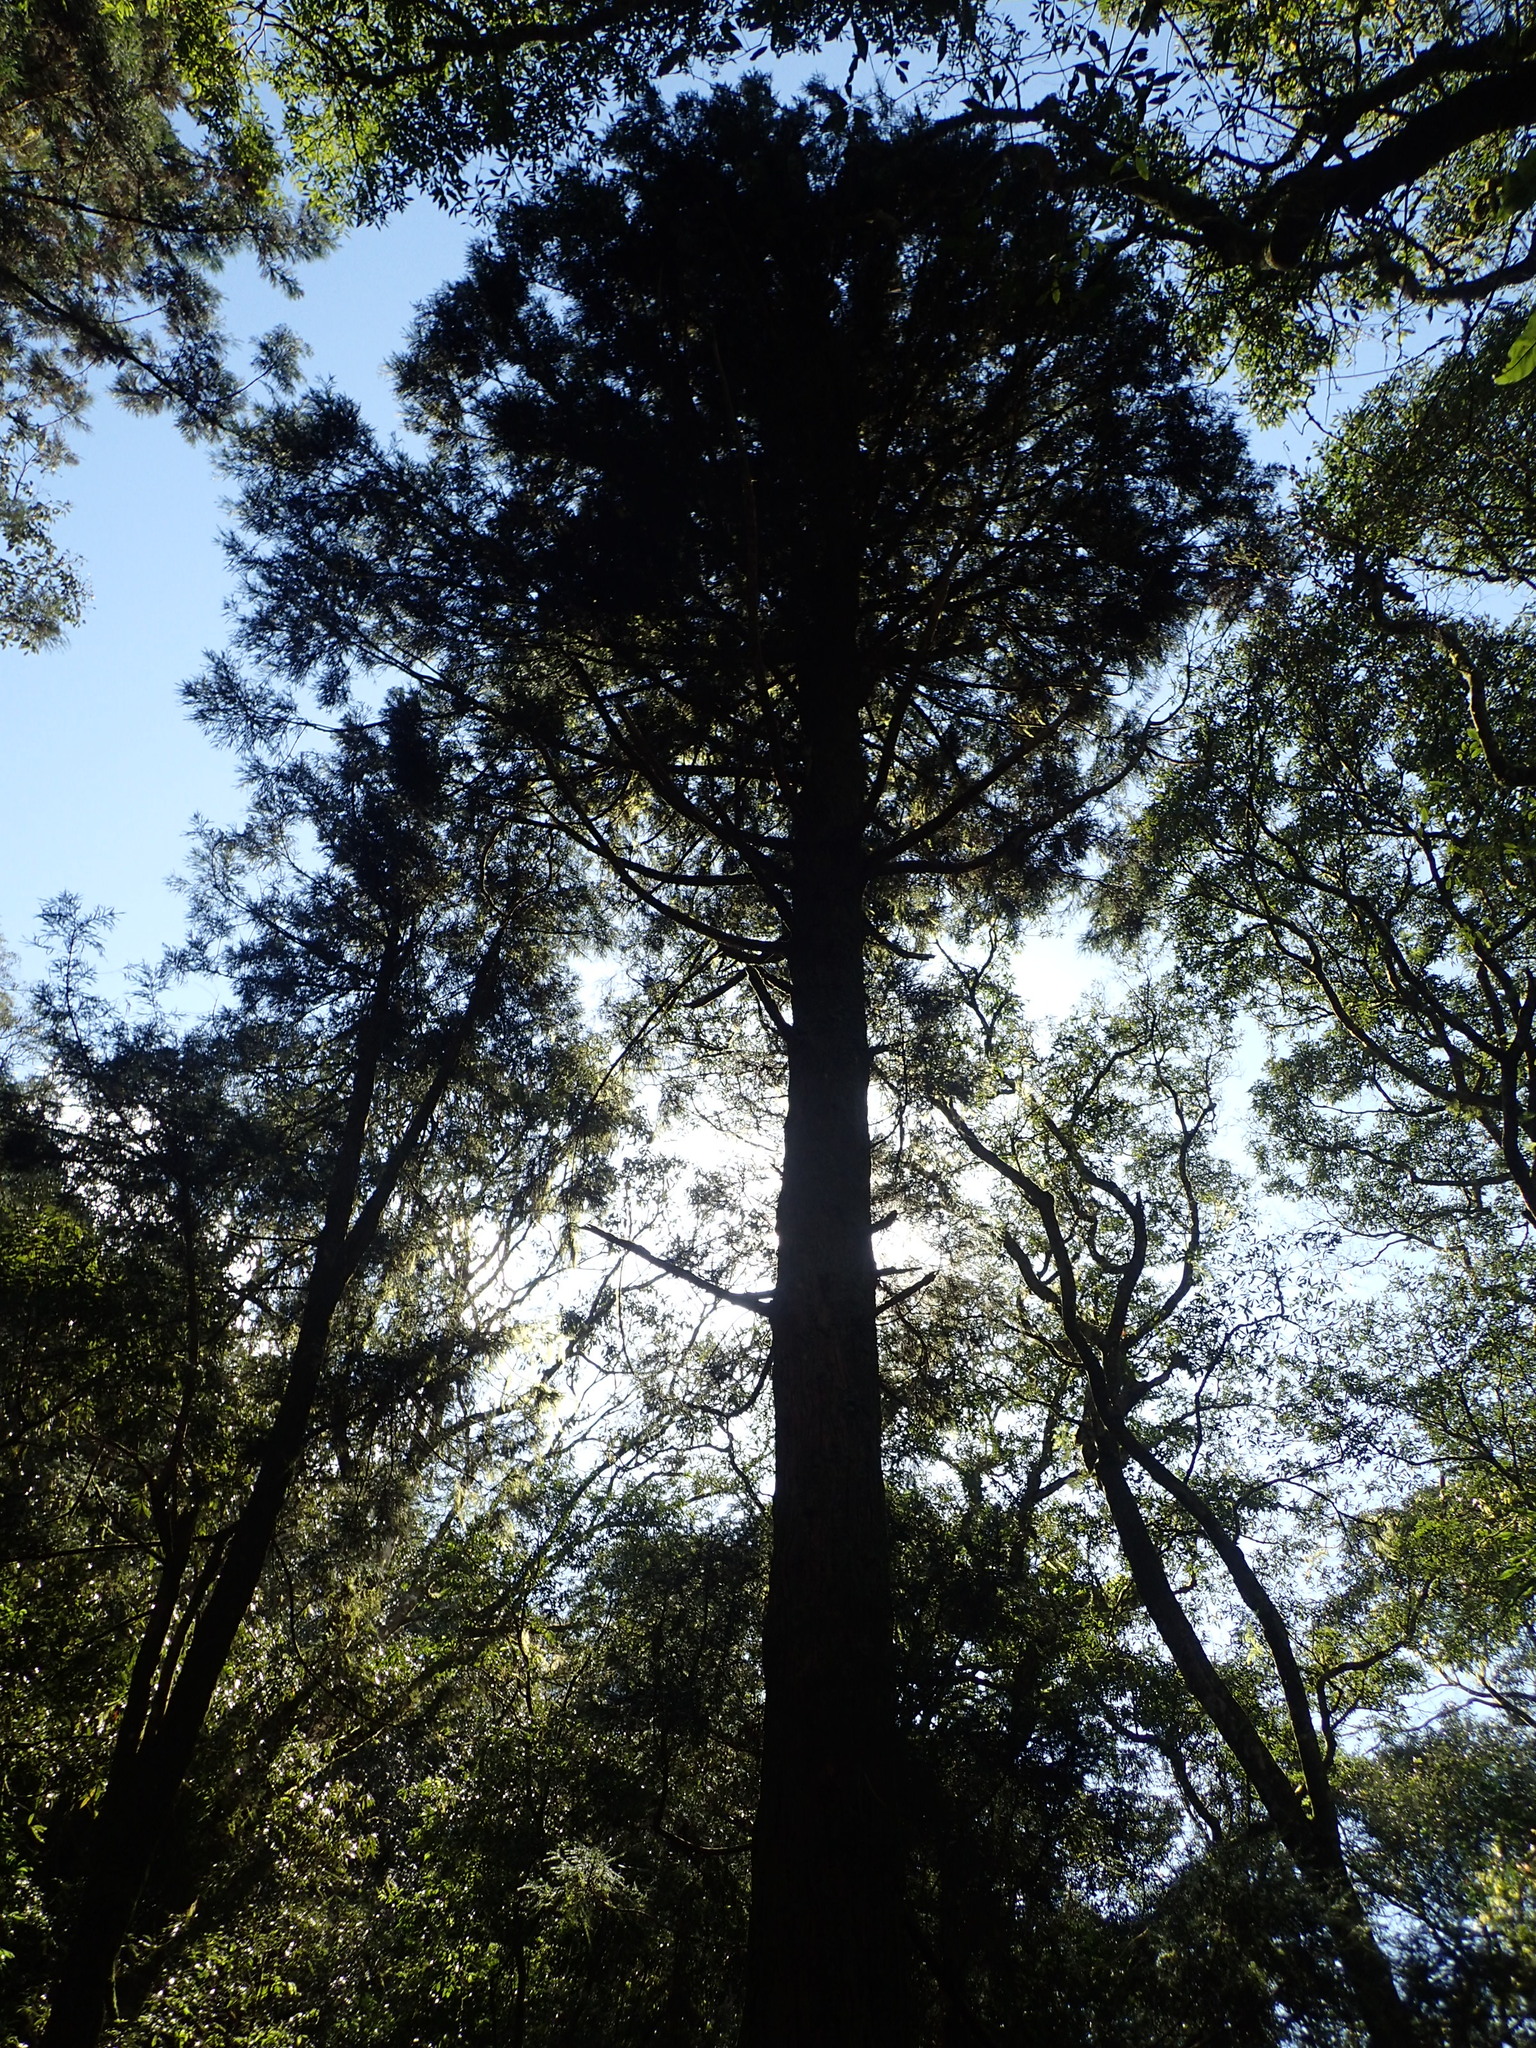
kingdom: Plantae
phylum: Tracheophyta
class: Pinopsida
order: Pinales
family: Cupressaceae
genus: Cryptomeria
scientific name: Cryptomeria japonica
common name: Japanese cedar
